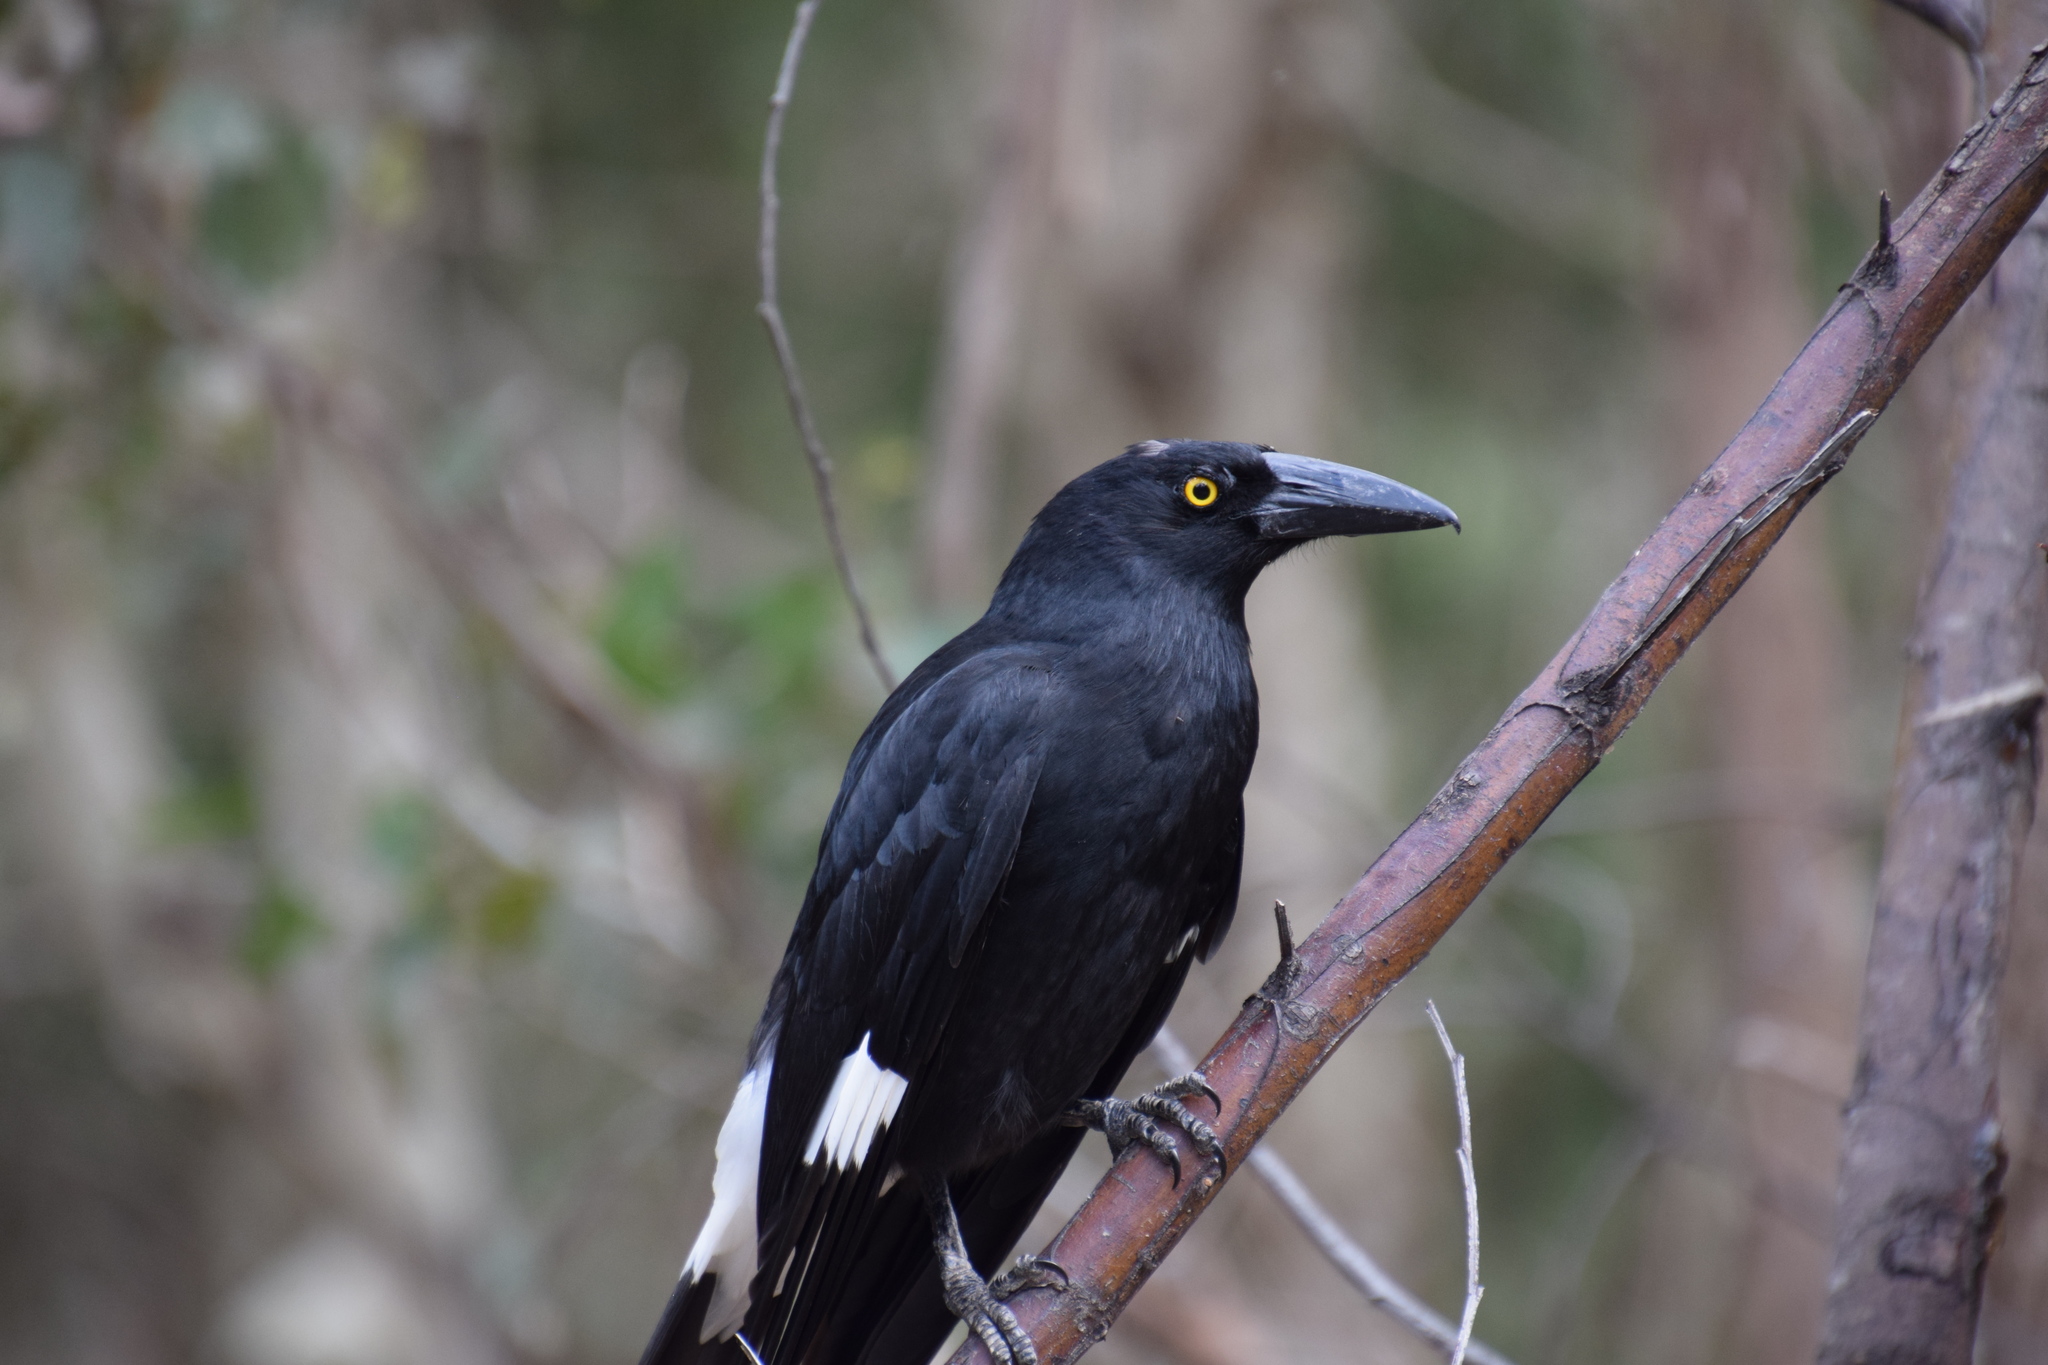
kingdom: Animalia
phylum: Chordata
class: Aves
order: Passeriformes
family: Cracticidae
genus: Strepera
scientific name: Strepera graculina
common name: Pied currawong
